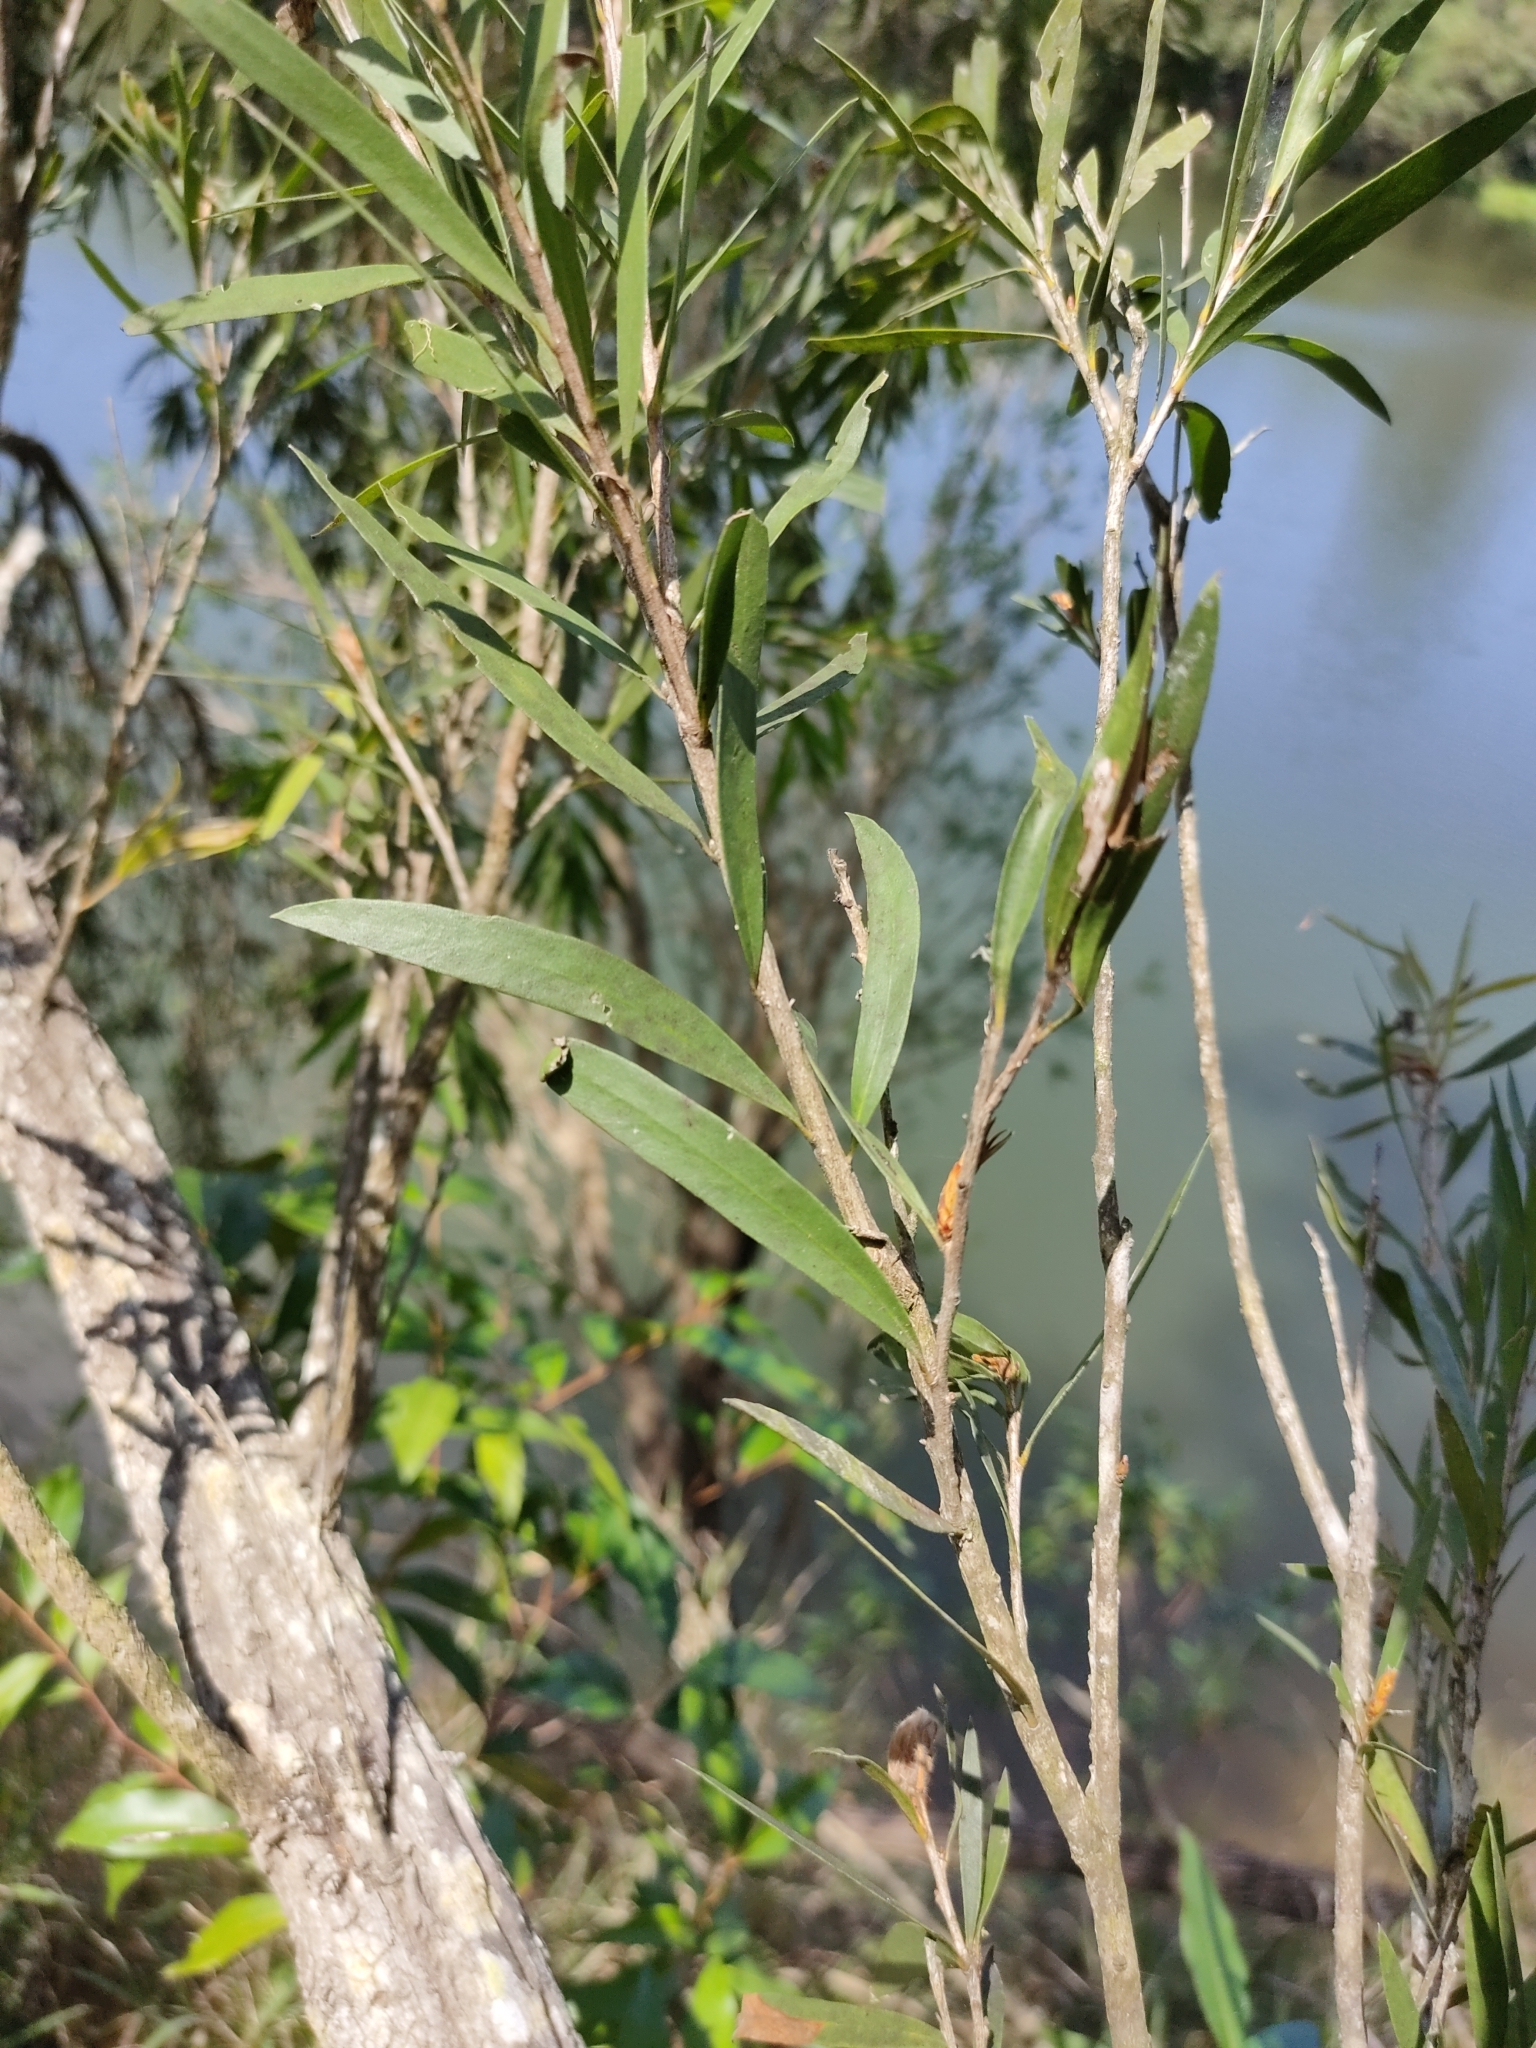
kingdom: Plantae
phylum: Tracheophyta
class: Magnoliopsida
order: Myrtales
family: Myrtaceae
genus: Callistemon
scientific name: Callistemon viminalis
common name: Drooping bottlebrush
